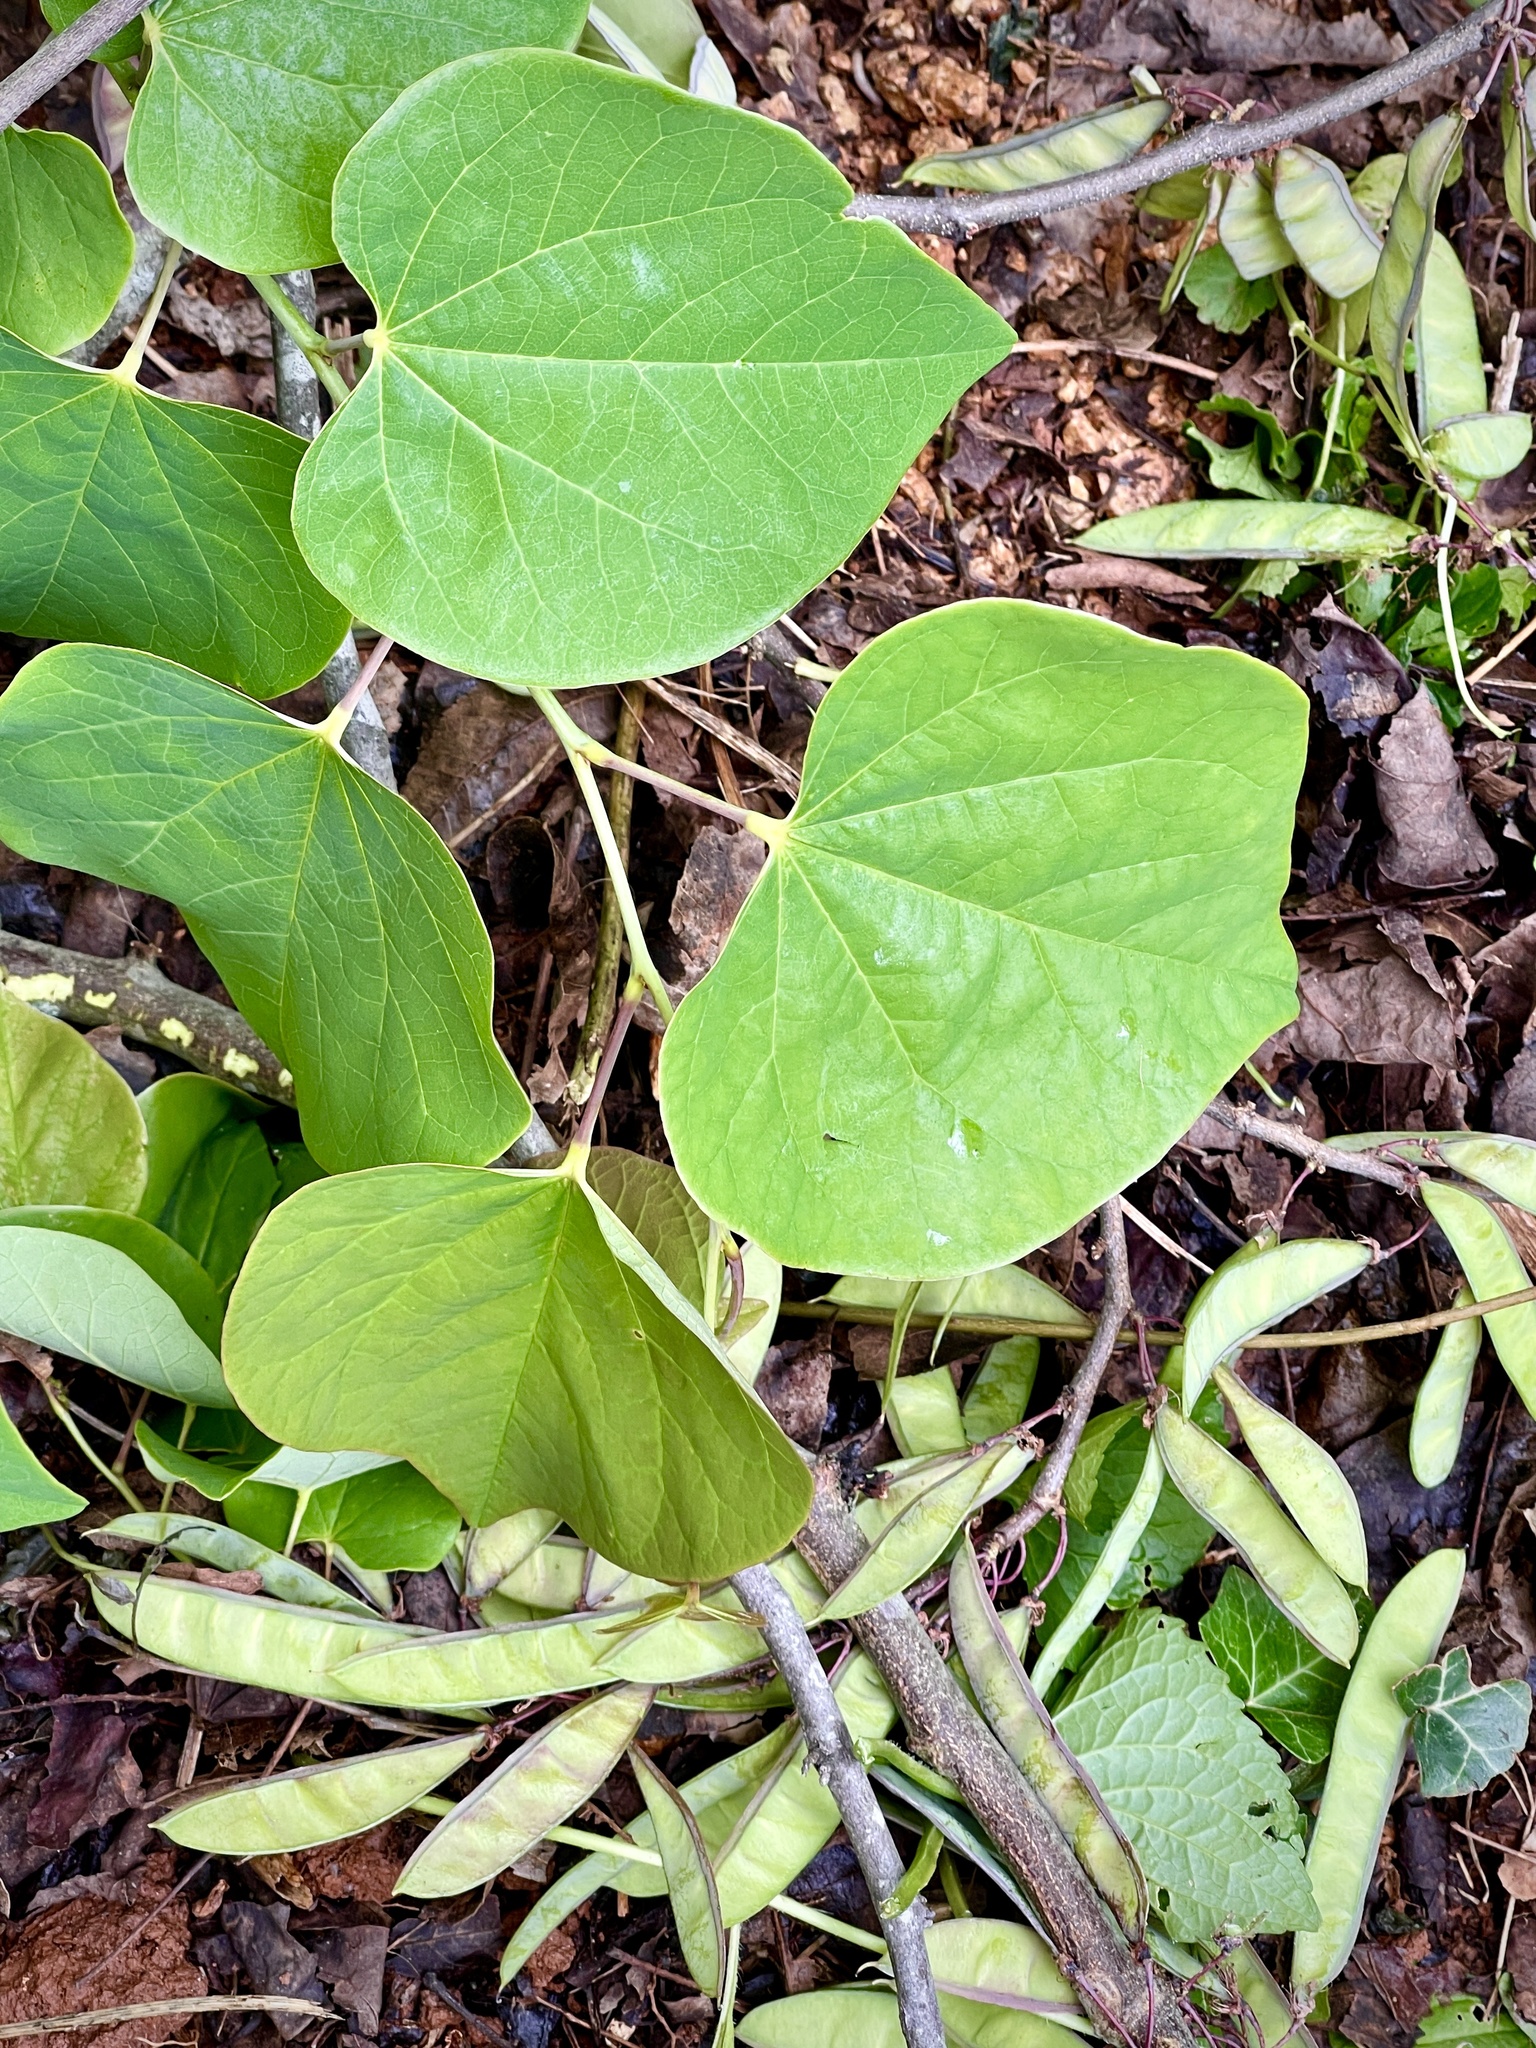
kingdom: Plantae
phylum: Tracheophyta
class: Magnoliopsida
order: Fabales
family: Fabaceae
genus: Cercis
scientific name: Cercis canadensis
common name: Eastern redbud
